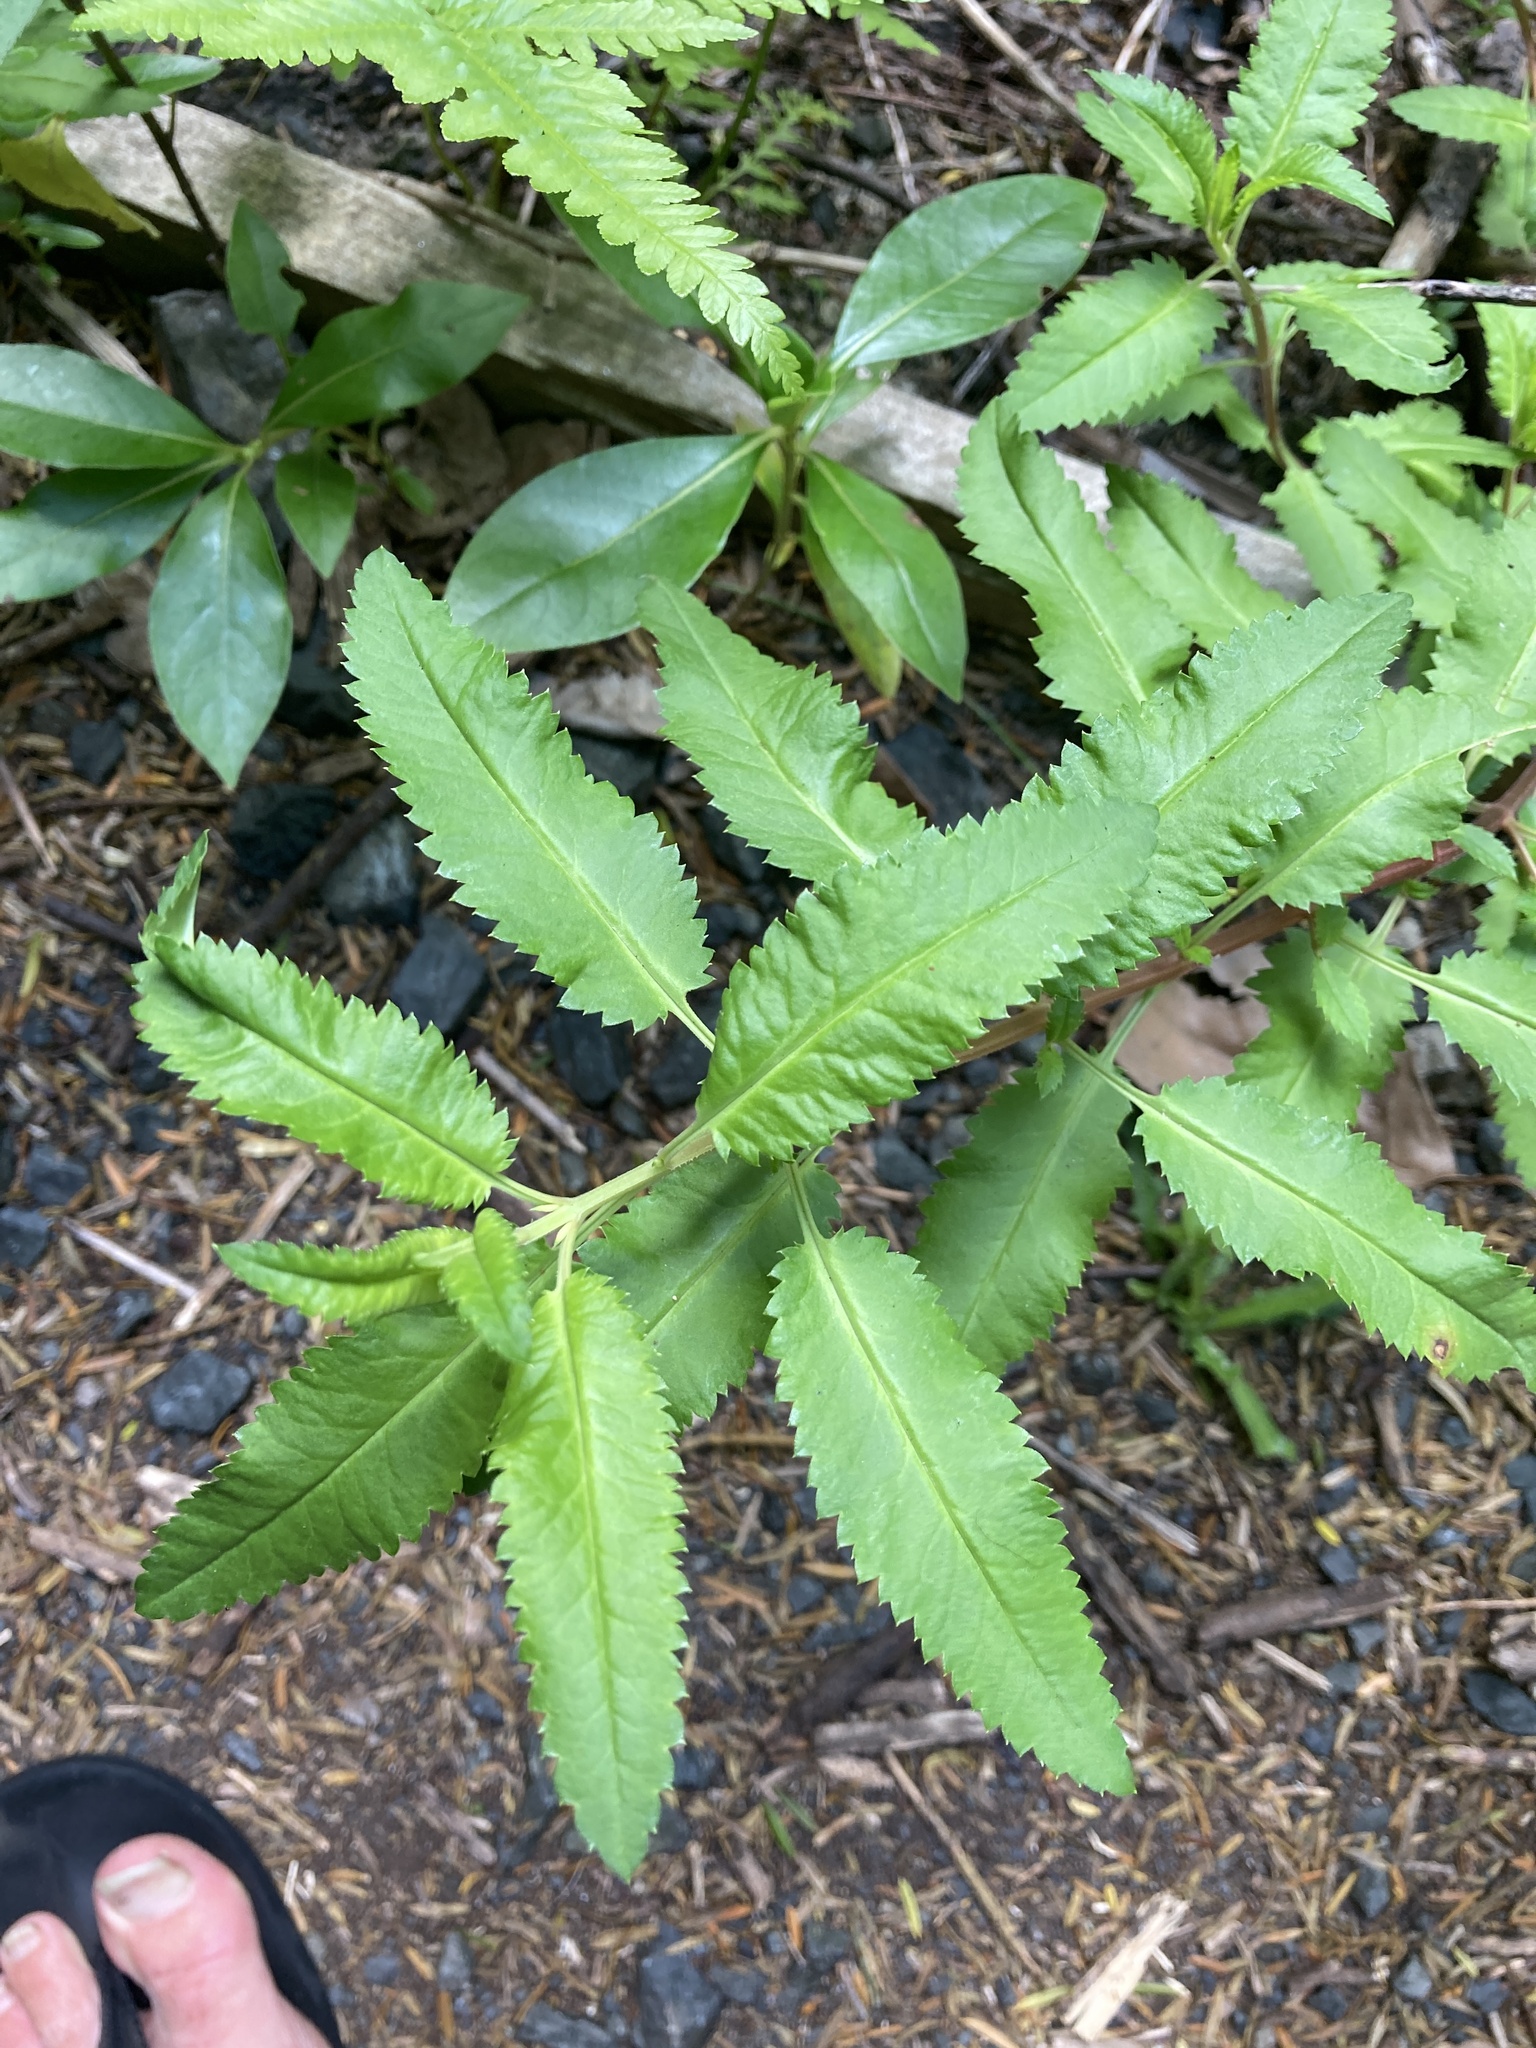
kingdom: Plantae
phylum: Tracheophyta
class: Magnoliopsida
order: Saxifragales
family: Haloragaceae
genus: Haloragis
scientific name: Haloragis erecta
